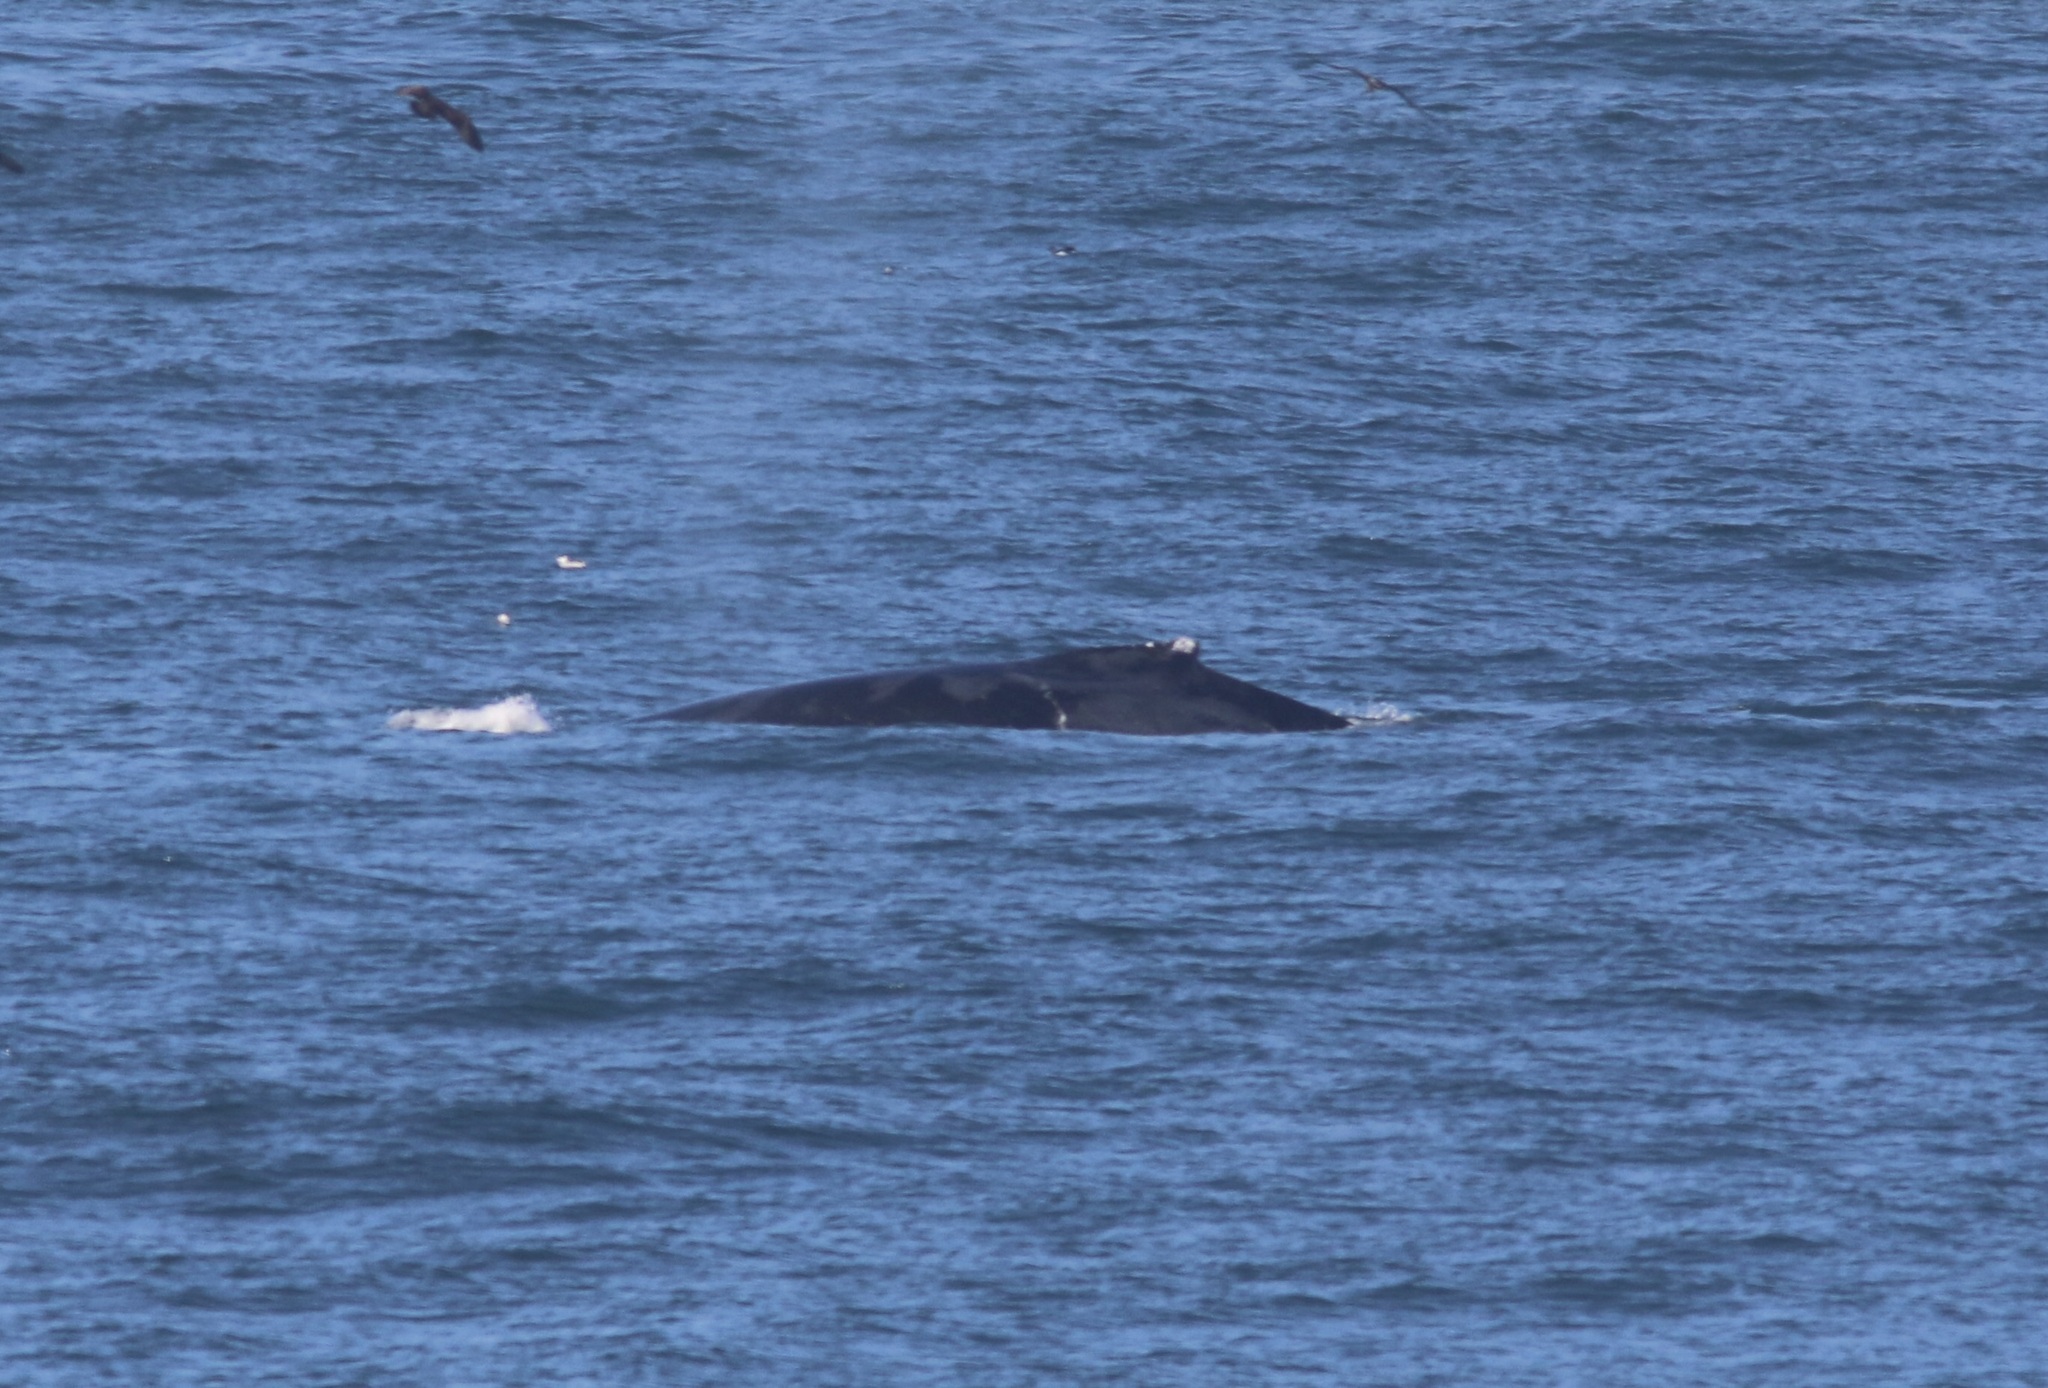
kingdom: Animalia
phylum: Chordata
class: Mammalia
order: Cetacea
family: Balaenopteridae
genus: Megaptera
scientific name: Megaptera novaeangliae
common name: Humpback whale
